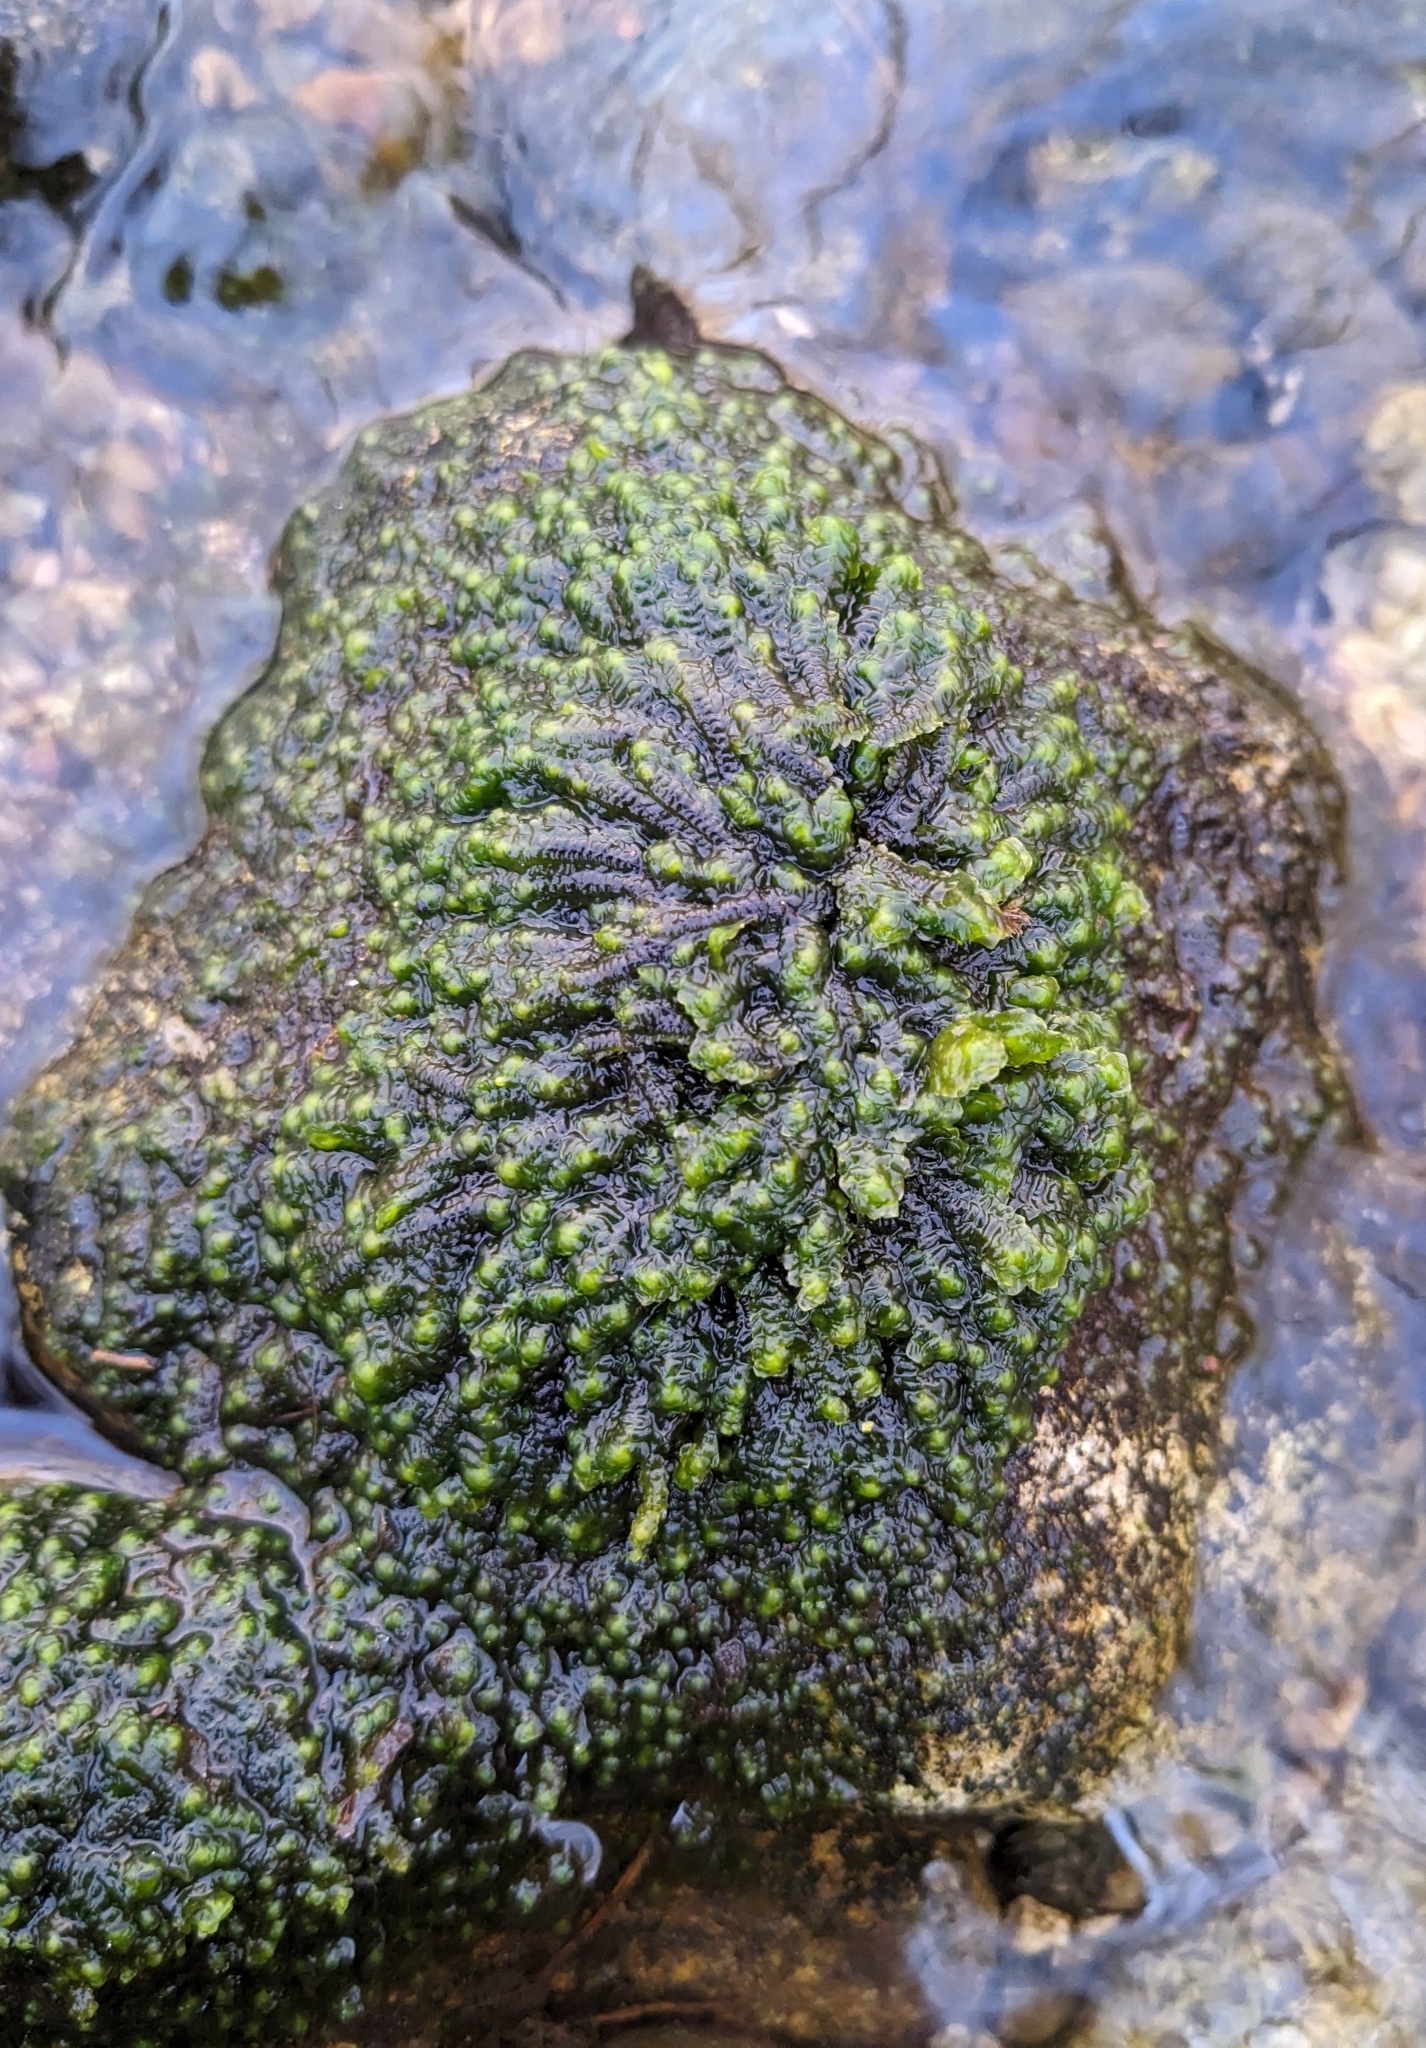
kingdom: Plantae
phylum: Marchantiophyta
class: Jungermanniopsida
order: Jungermanniales
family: Scapaniaceae
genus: Scapania
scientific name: Scapania undulata
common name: Water earwort
